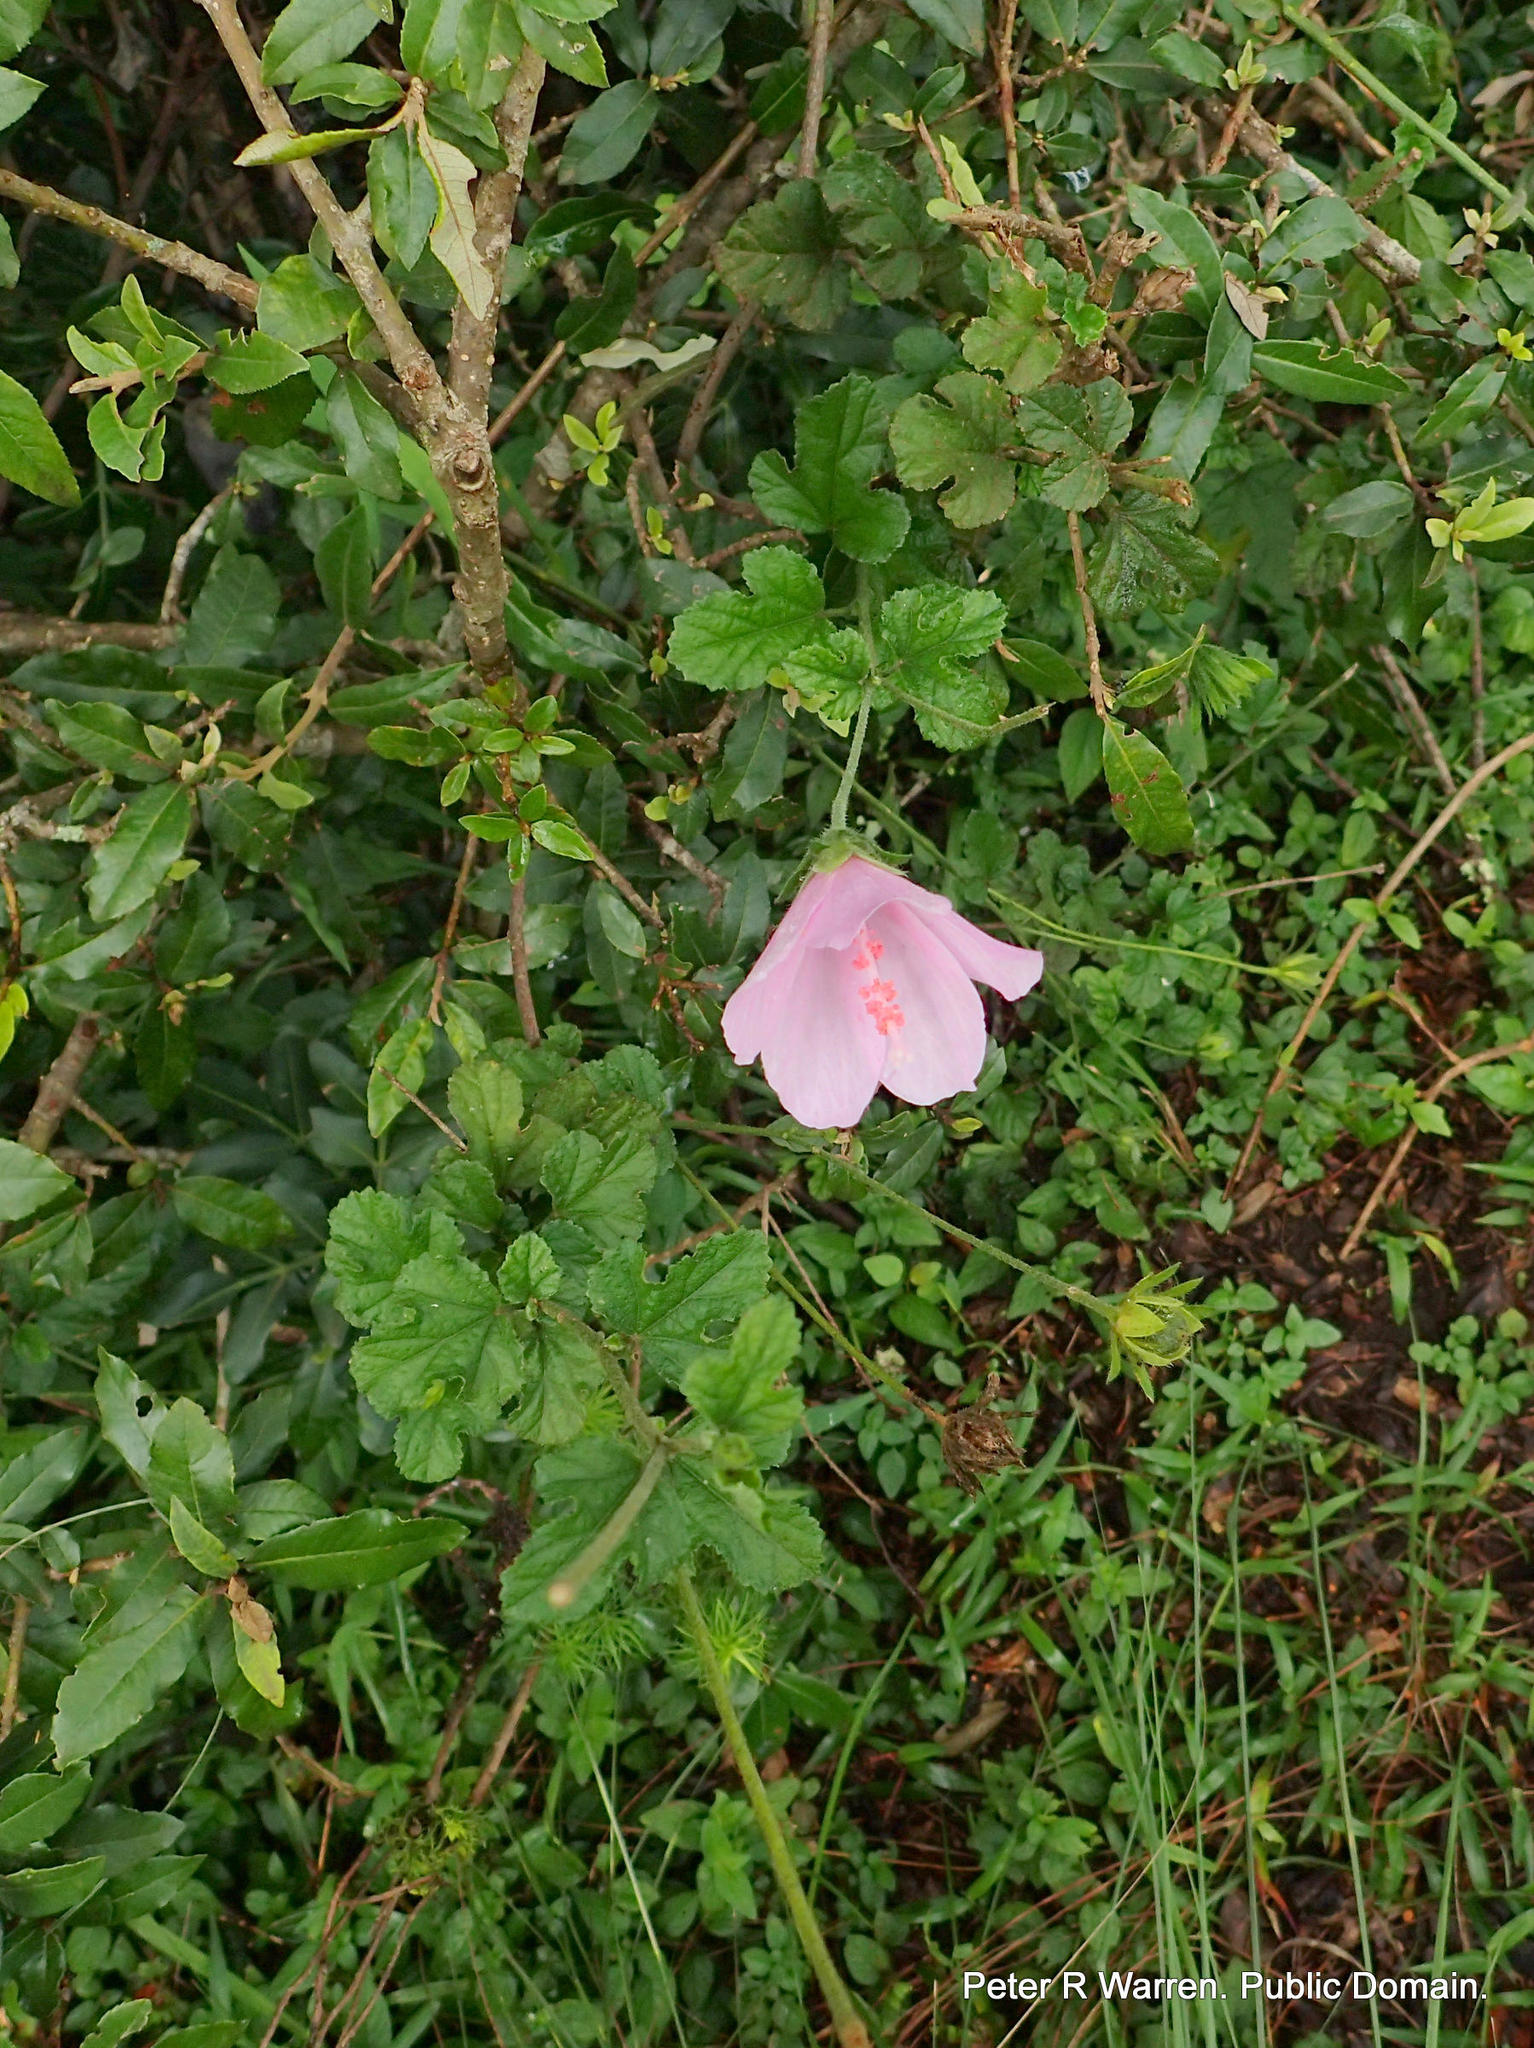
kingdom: Plantae
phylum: Tracheophyta
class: Magnoliopsida
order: Malvales
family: Malvaceae
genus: Hibiscus
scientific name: Hibiscus pedunculatus
